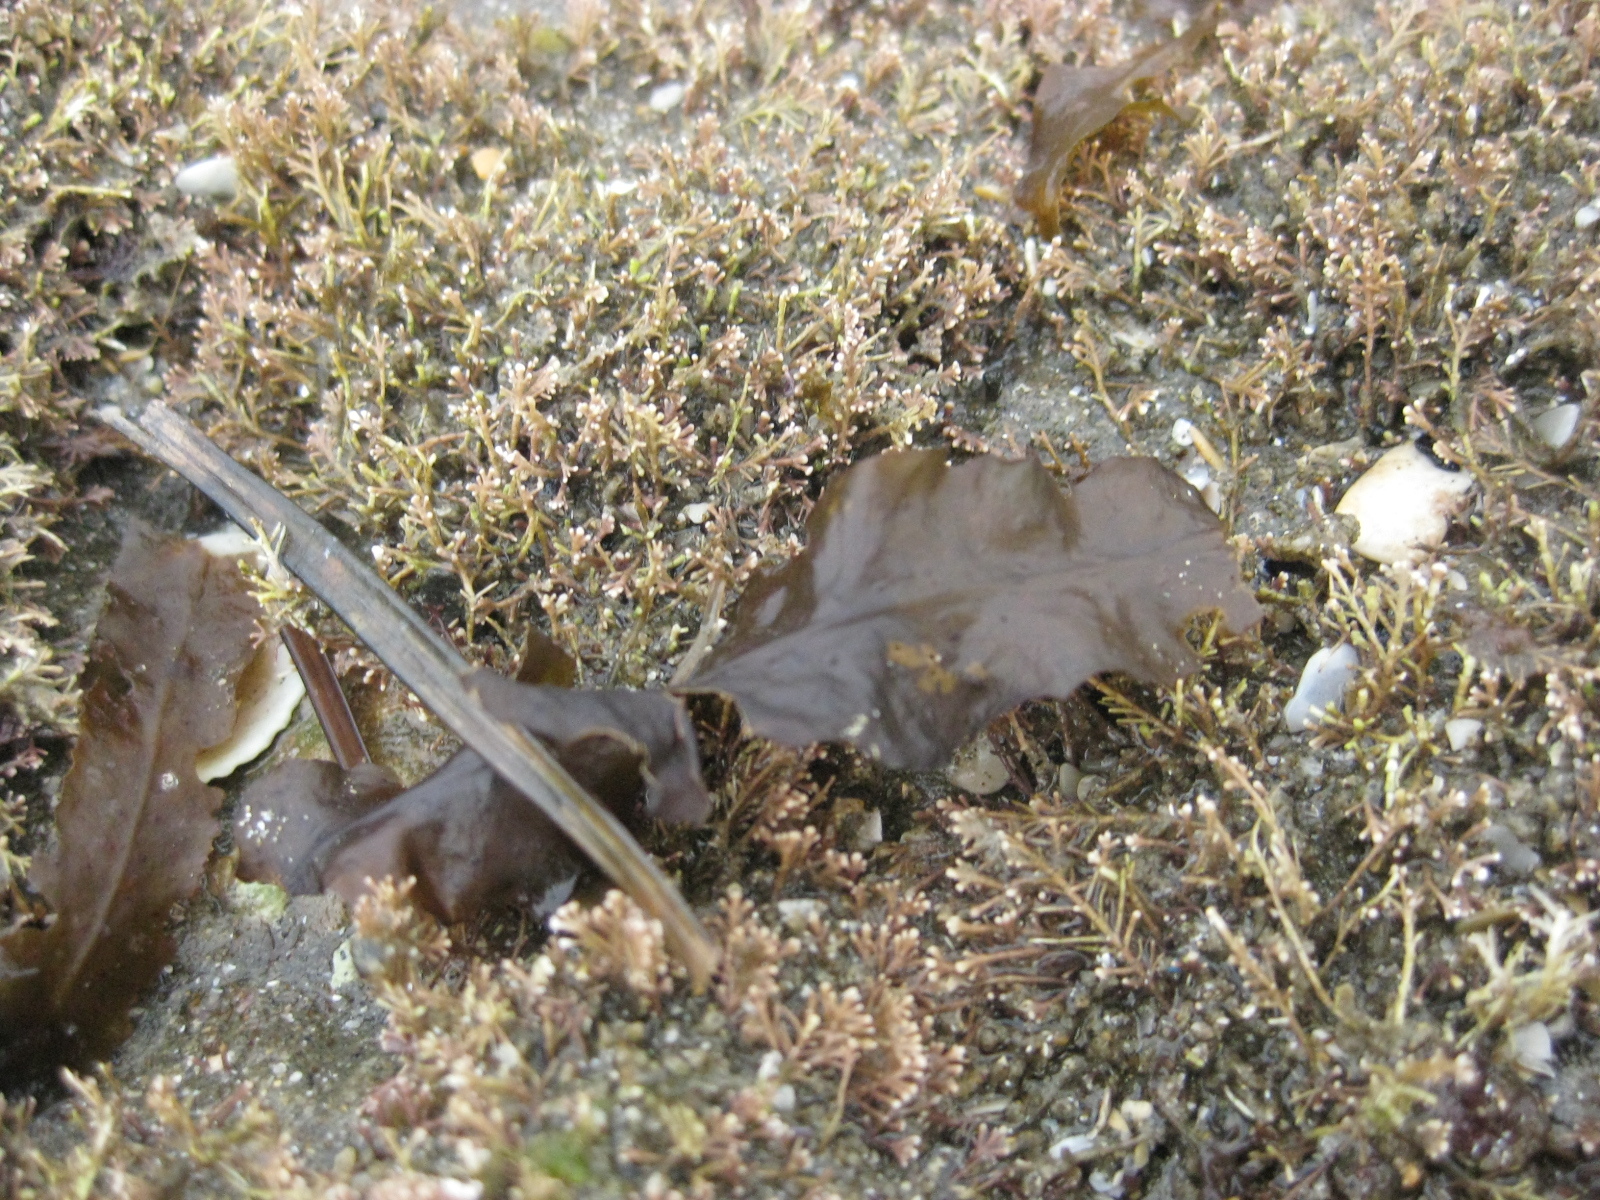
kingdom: Chromista
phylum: Ochrophyta
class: Phaeophyceae
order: Fucales
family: Sargassaceae
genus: Carpophyllum
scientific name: Carpophyllum flexuosum
